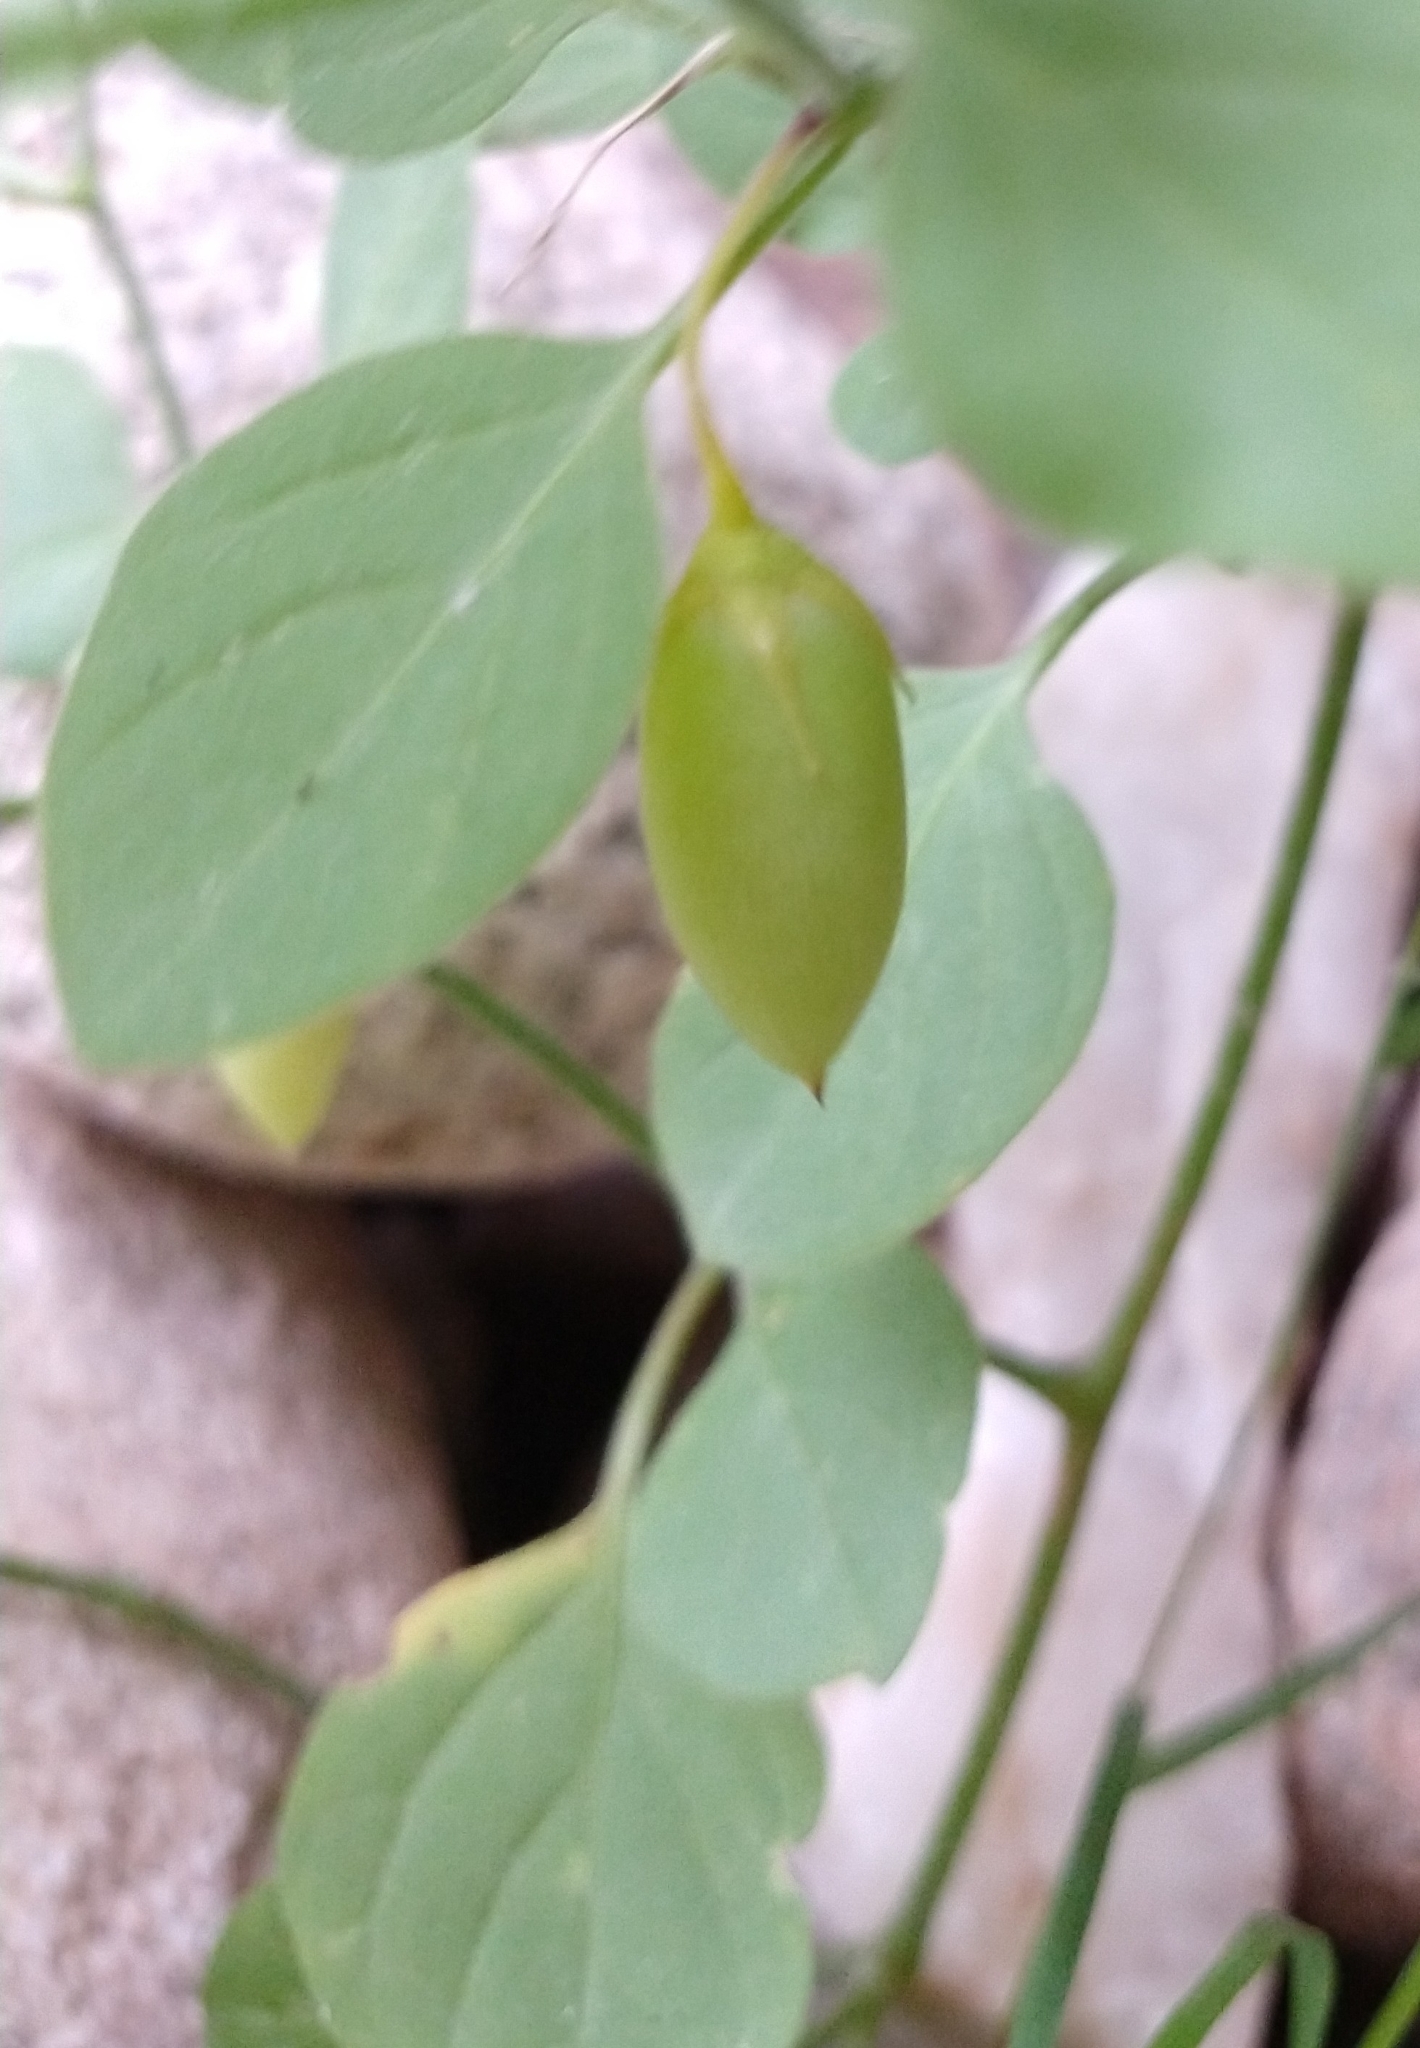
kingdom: Plantae
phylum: Tracheophyta
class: Magnoliopsida
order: Solanales
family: Solanaceae
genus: Salpichroa
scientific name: Salpichroa origanifolia
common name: Lily-of-the-valley-vine
